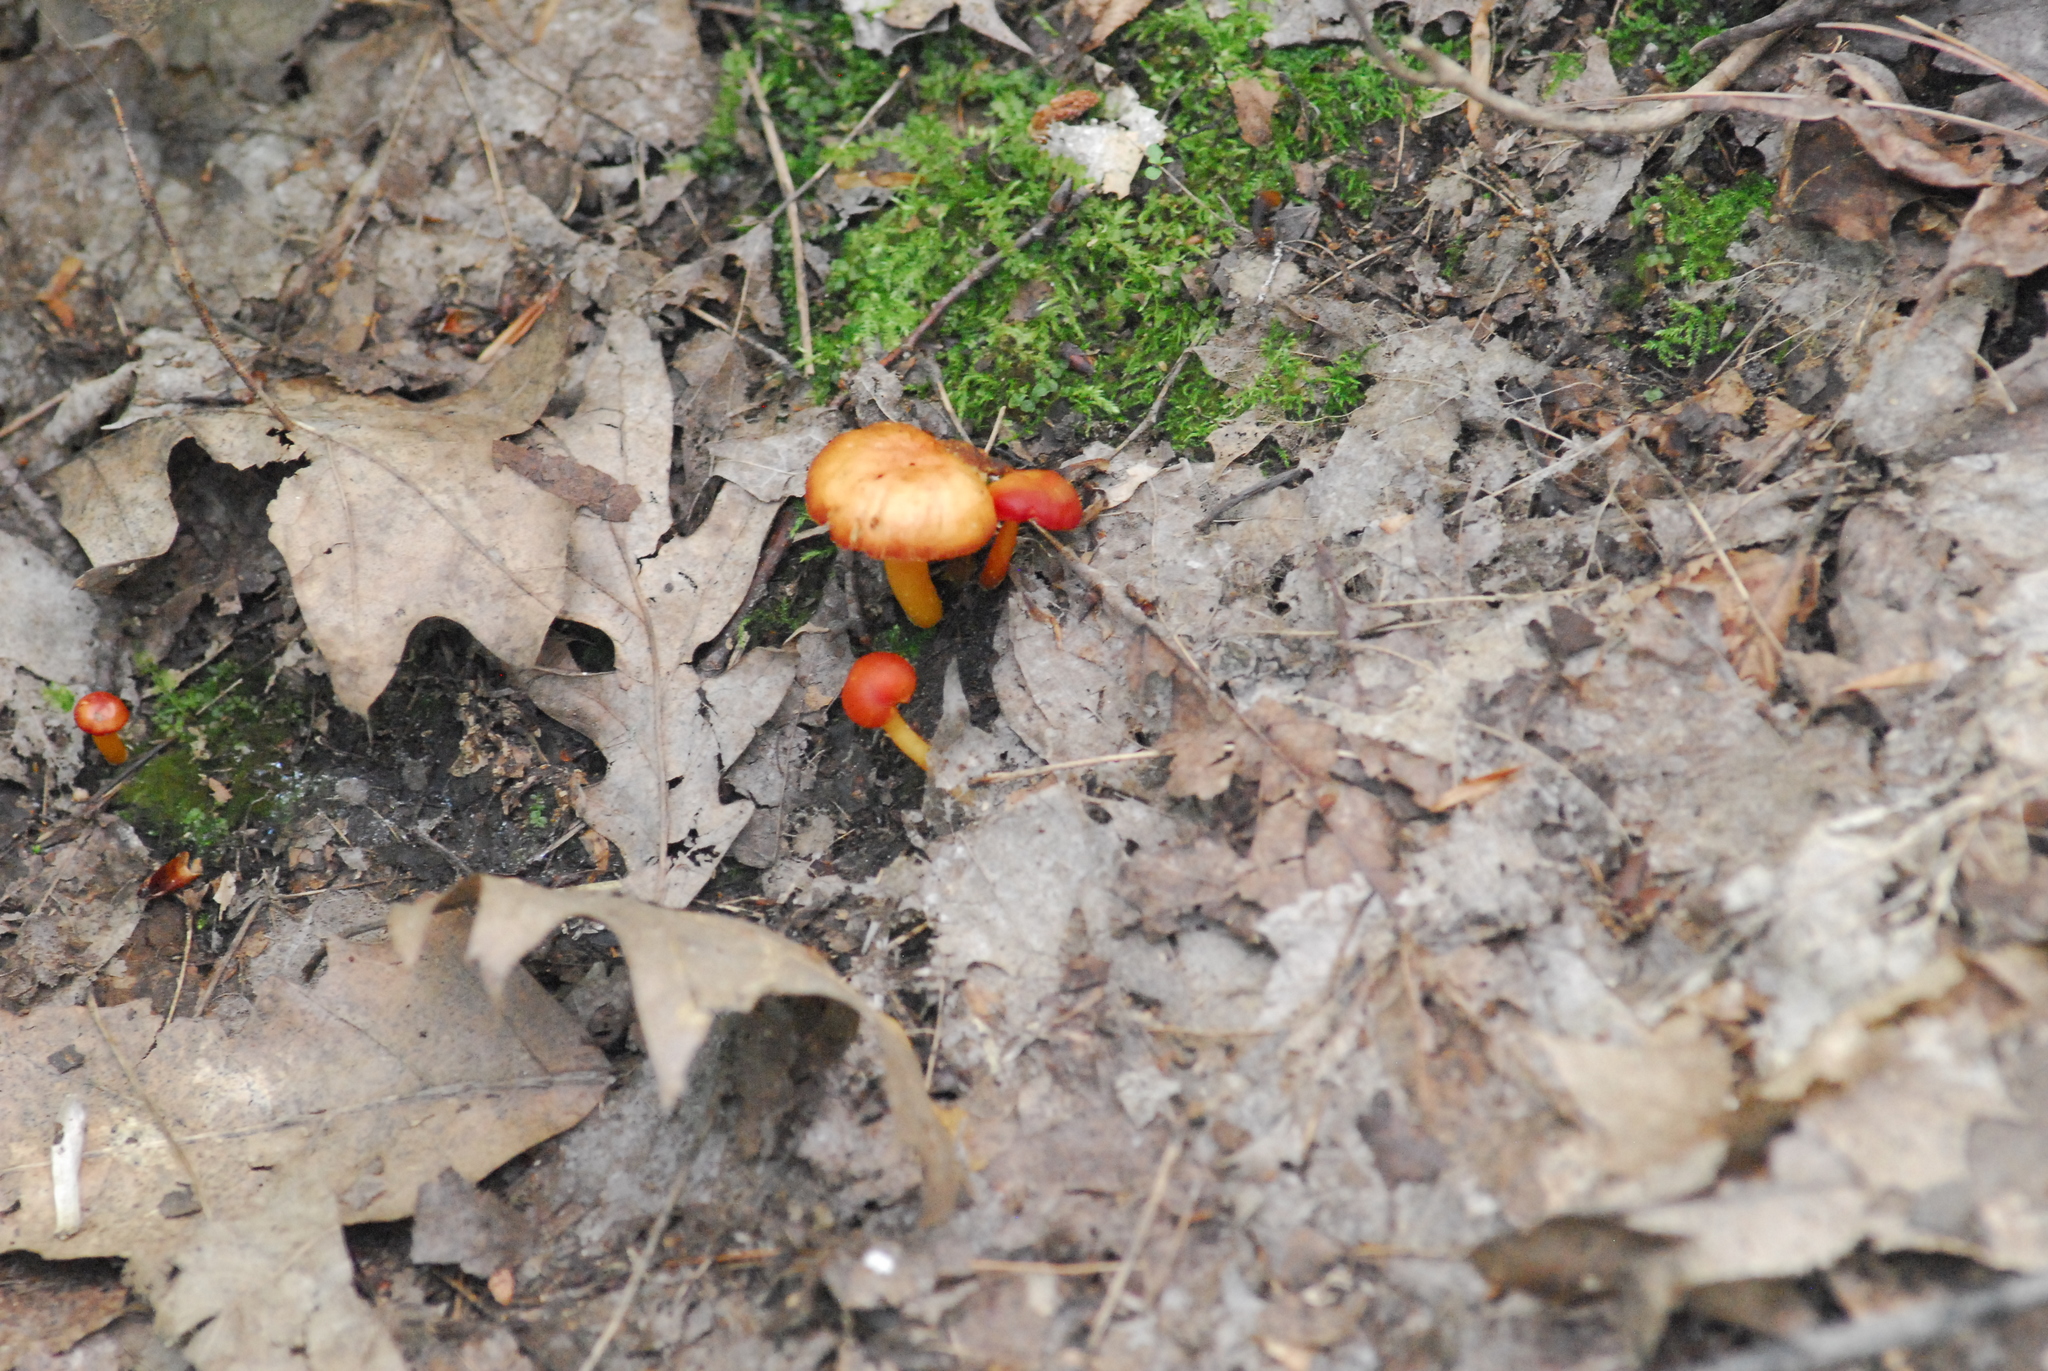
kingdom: Fungi
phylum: Basidiomycota
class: Agaricomycetes
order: Agaricales
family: Hygrophoraceae
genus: Hygrocybe
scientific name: Hygrocybe miniata
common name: Vermilion waxcap
